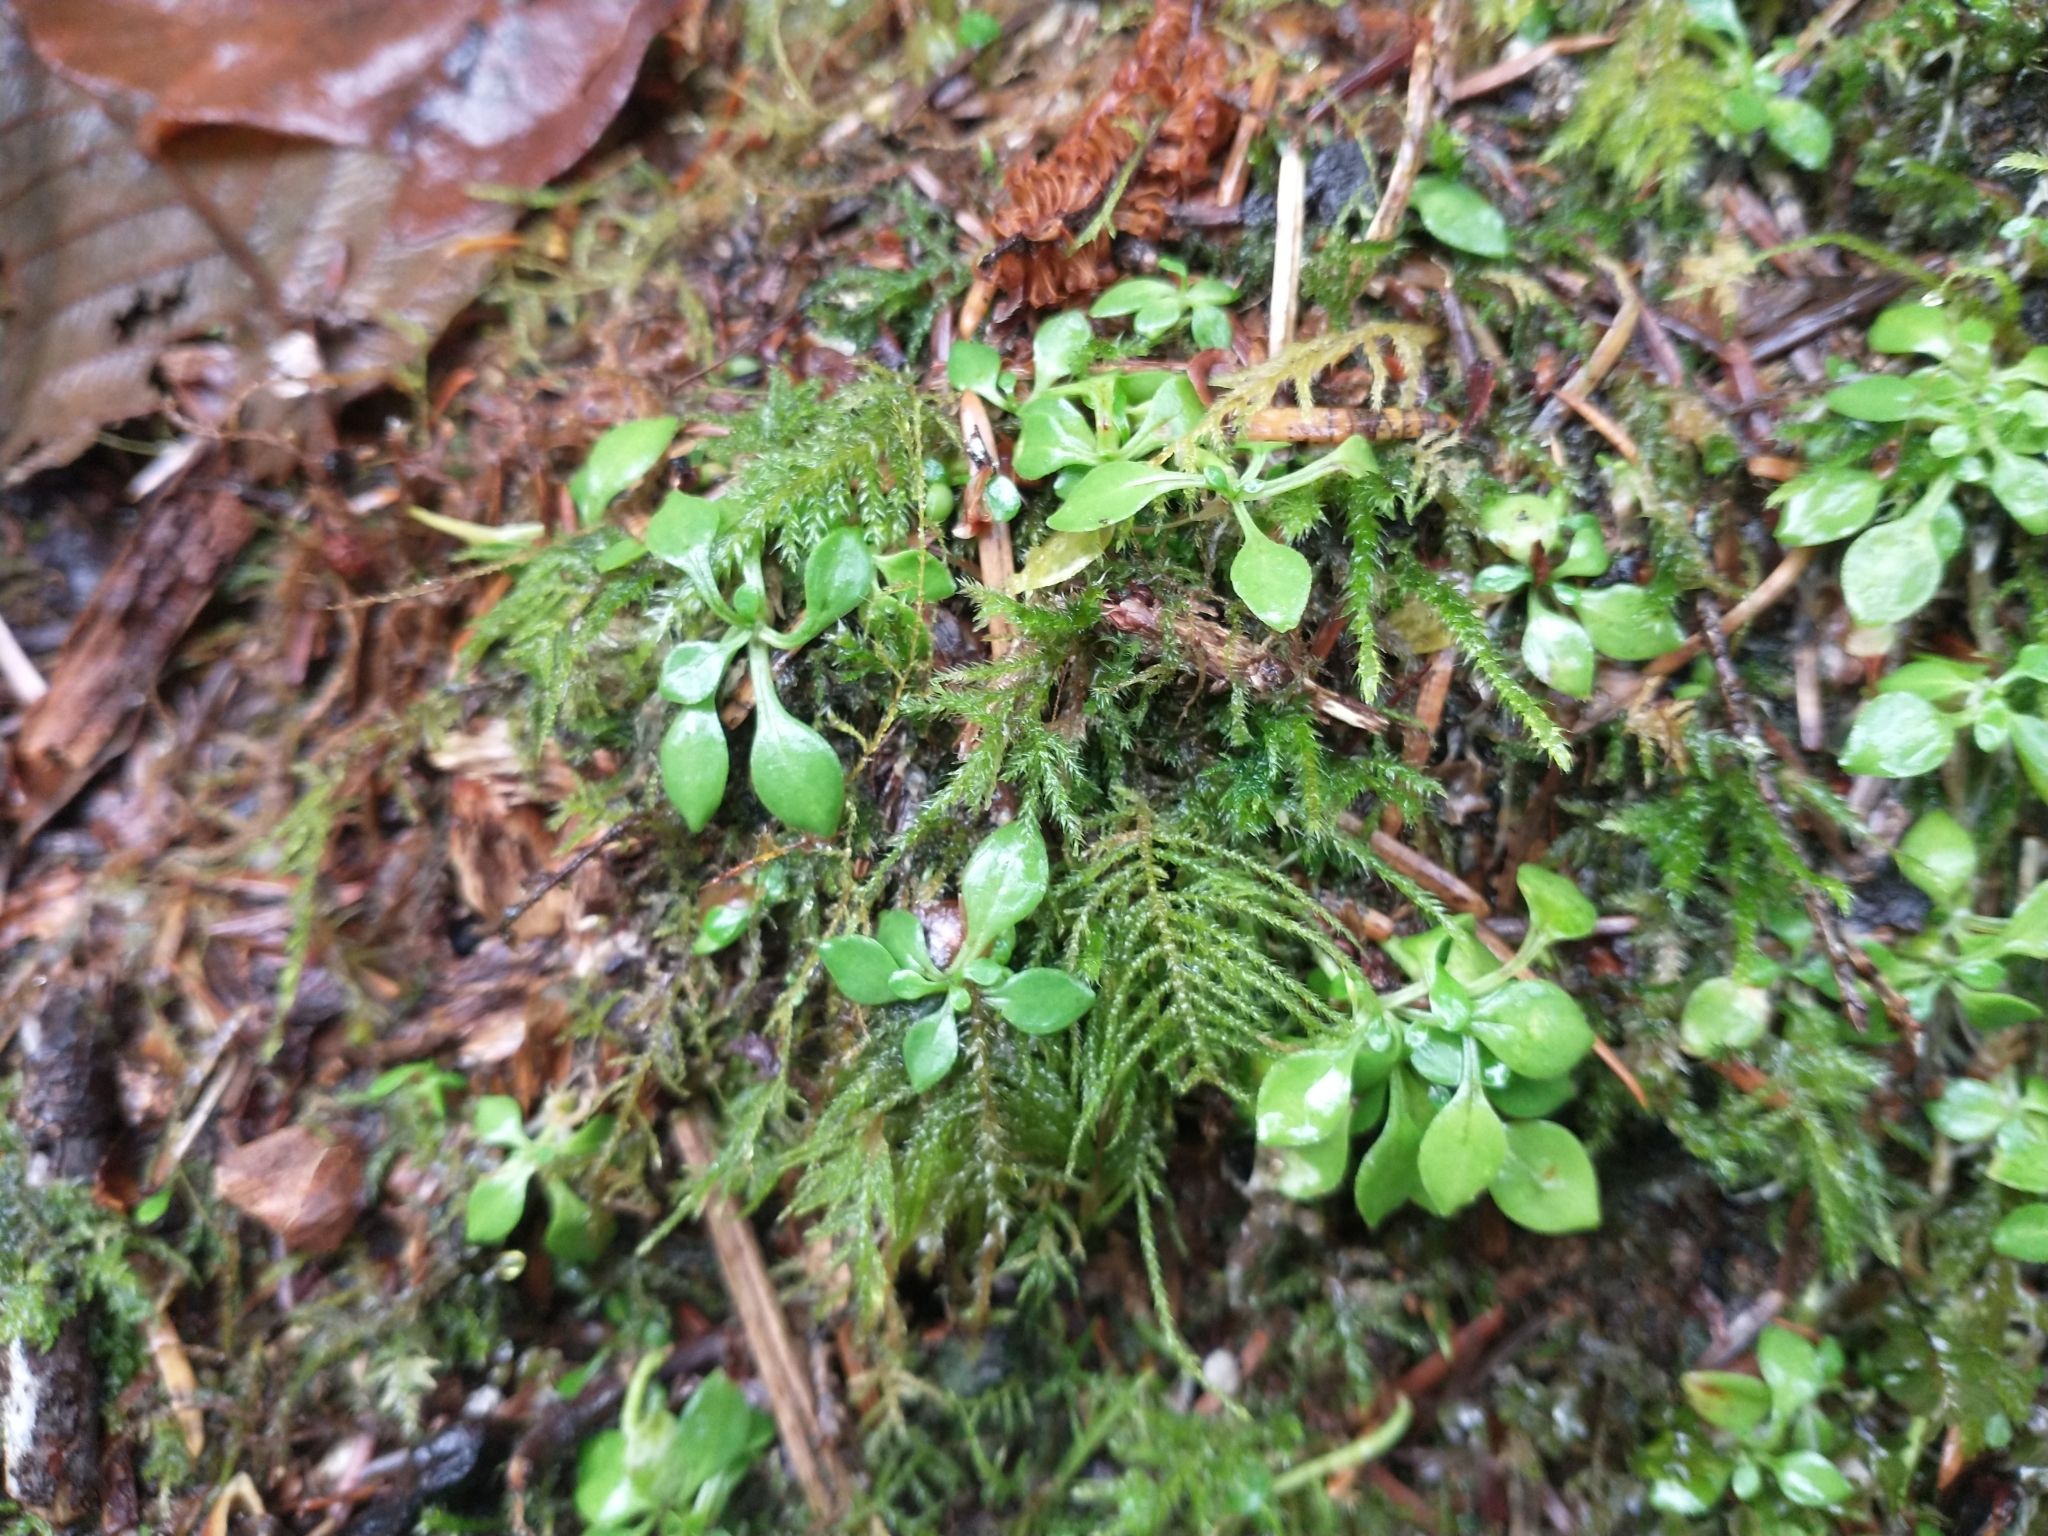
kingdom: Plantae
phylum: Tracheophyta
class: Magnoliopsida
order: Caryophyllales
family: Montiaceae
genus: Montia
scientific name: Montia parvifolia
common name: Small-leaved blinks
